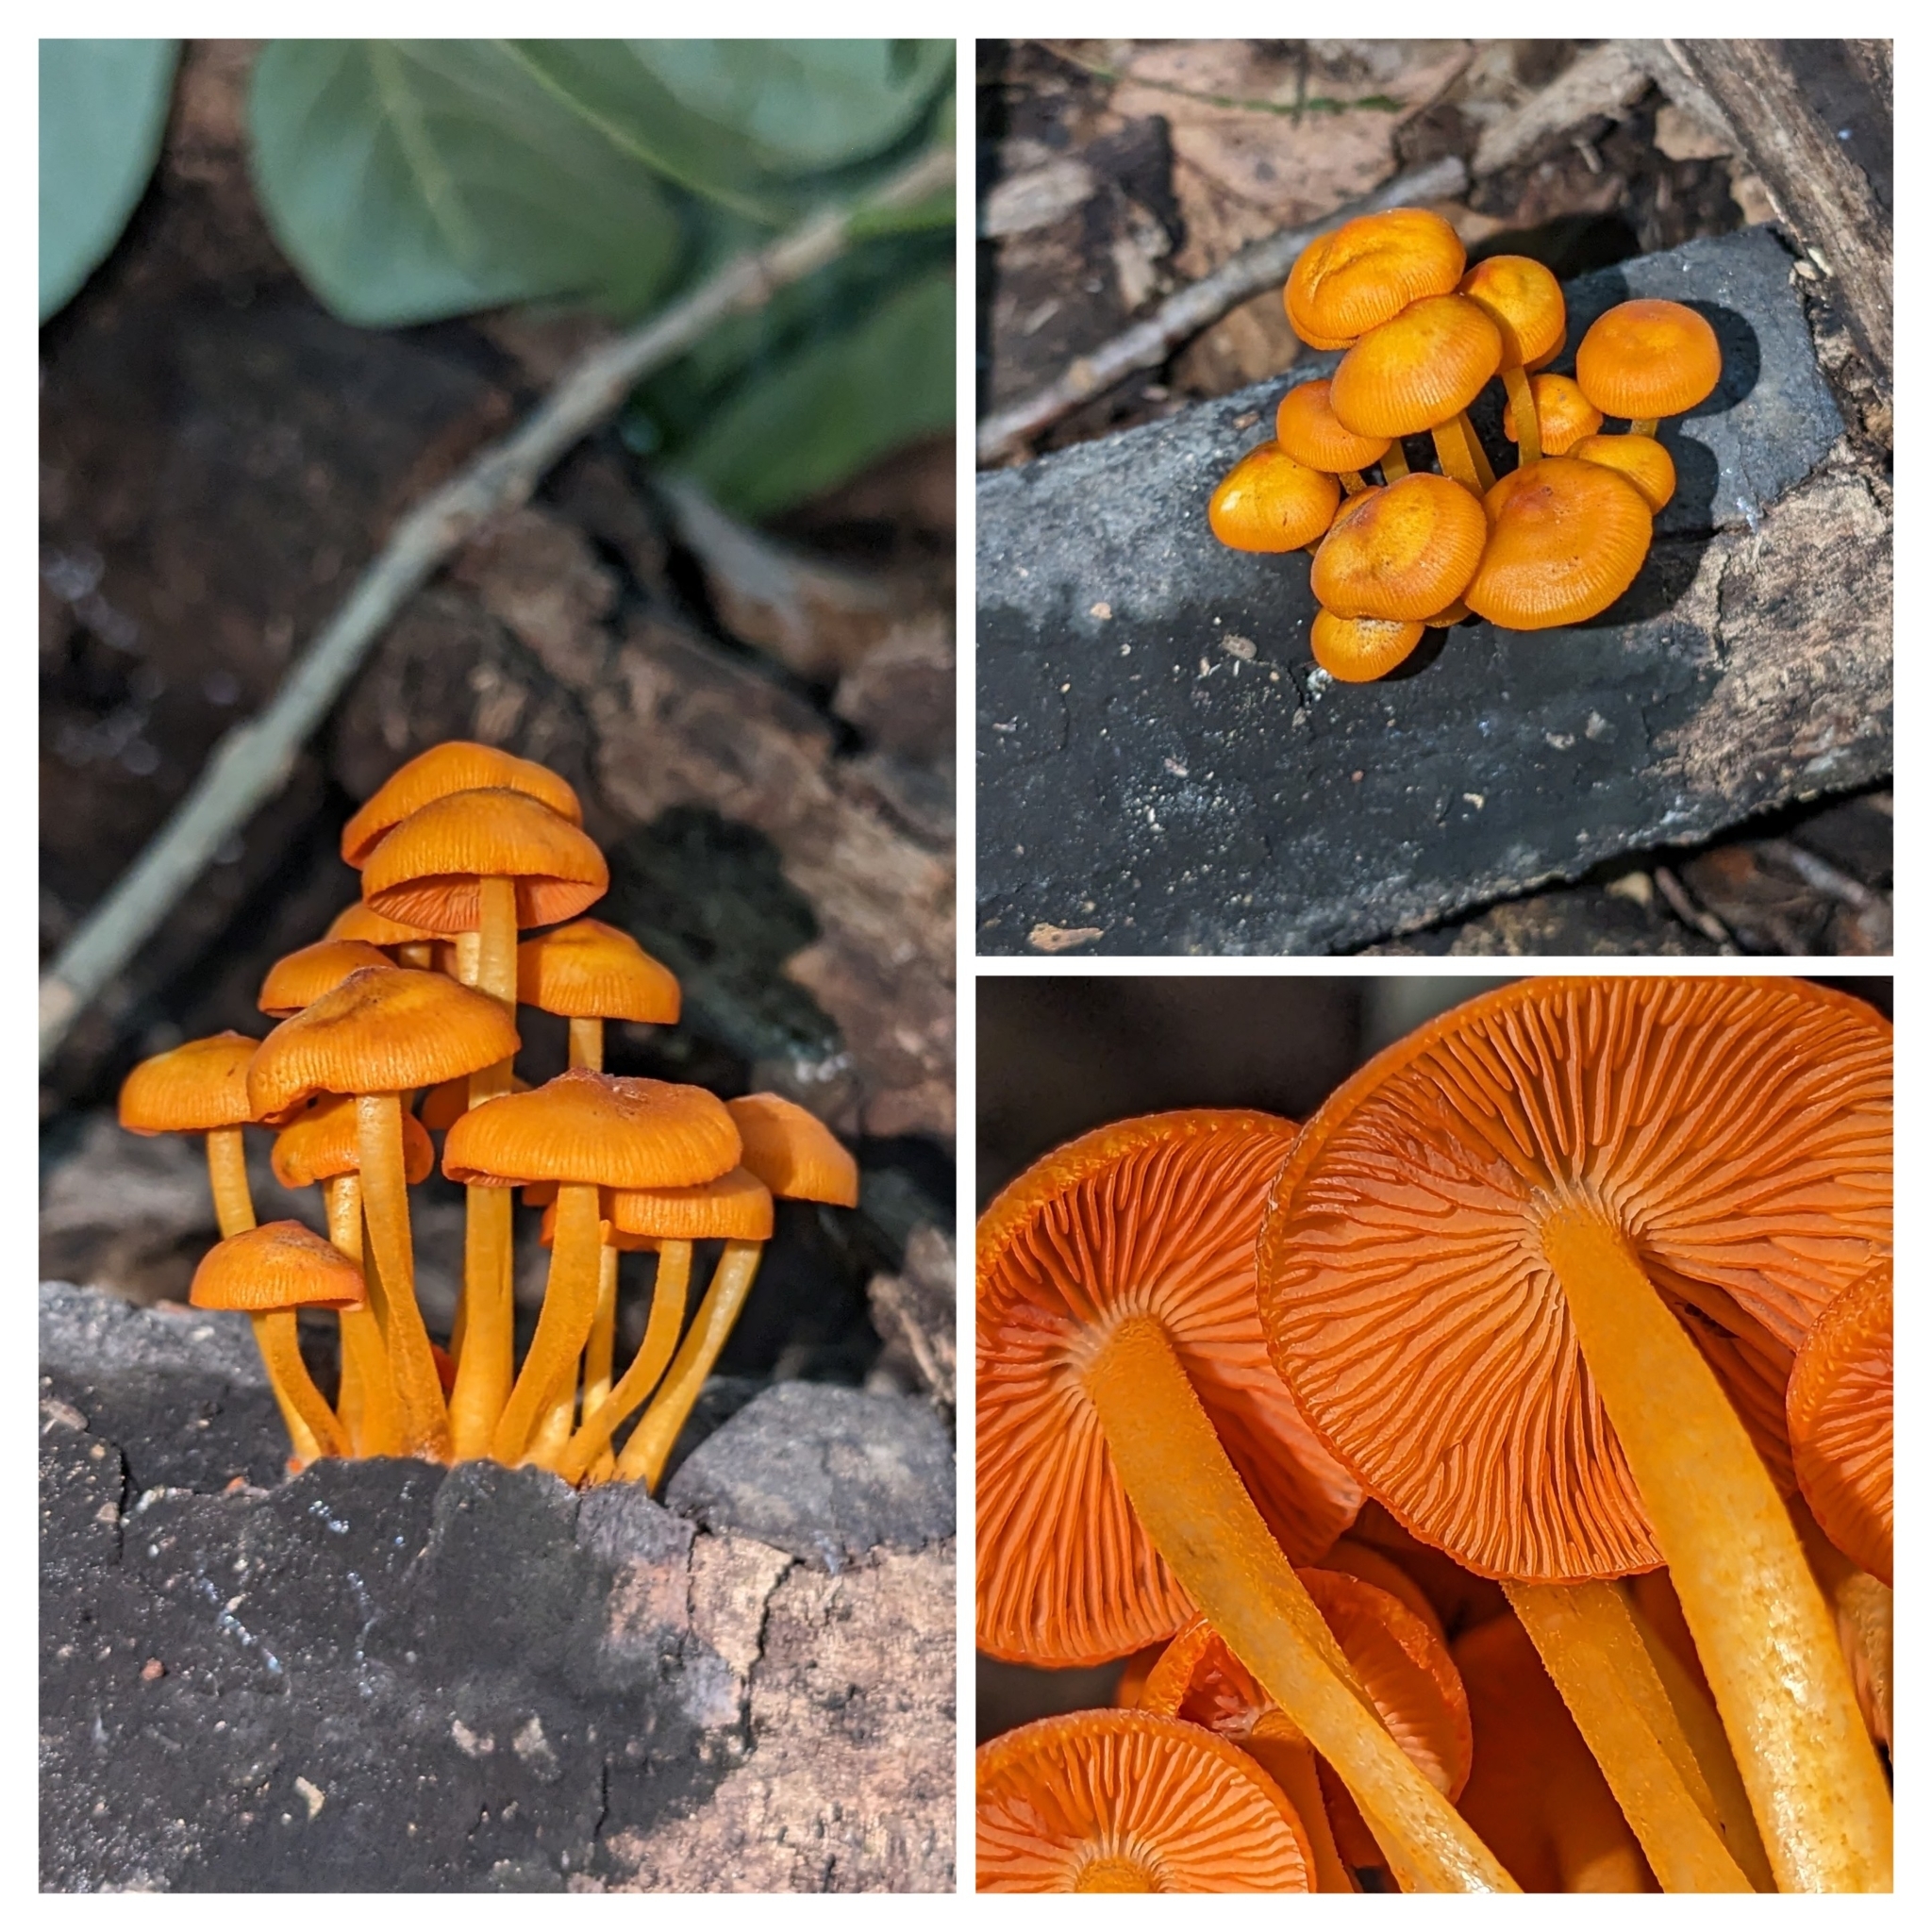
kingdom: Fungi
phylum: Basidiomycota
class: Agaricomycetes
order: Agaricales
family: Mycenaceae
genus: Mycena
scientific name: Mycena leaiana
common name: Orange mycena
